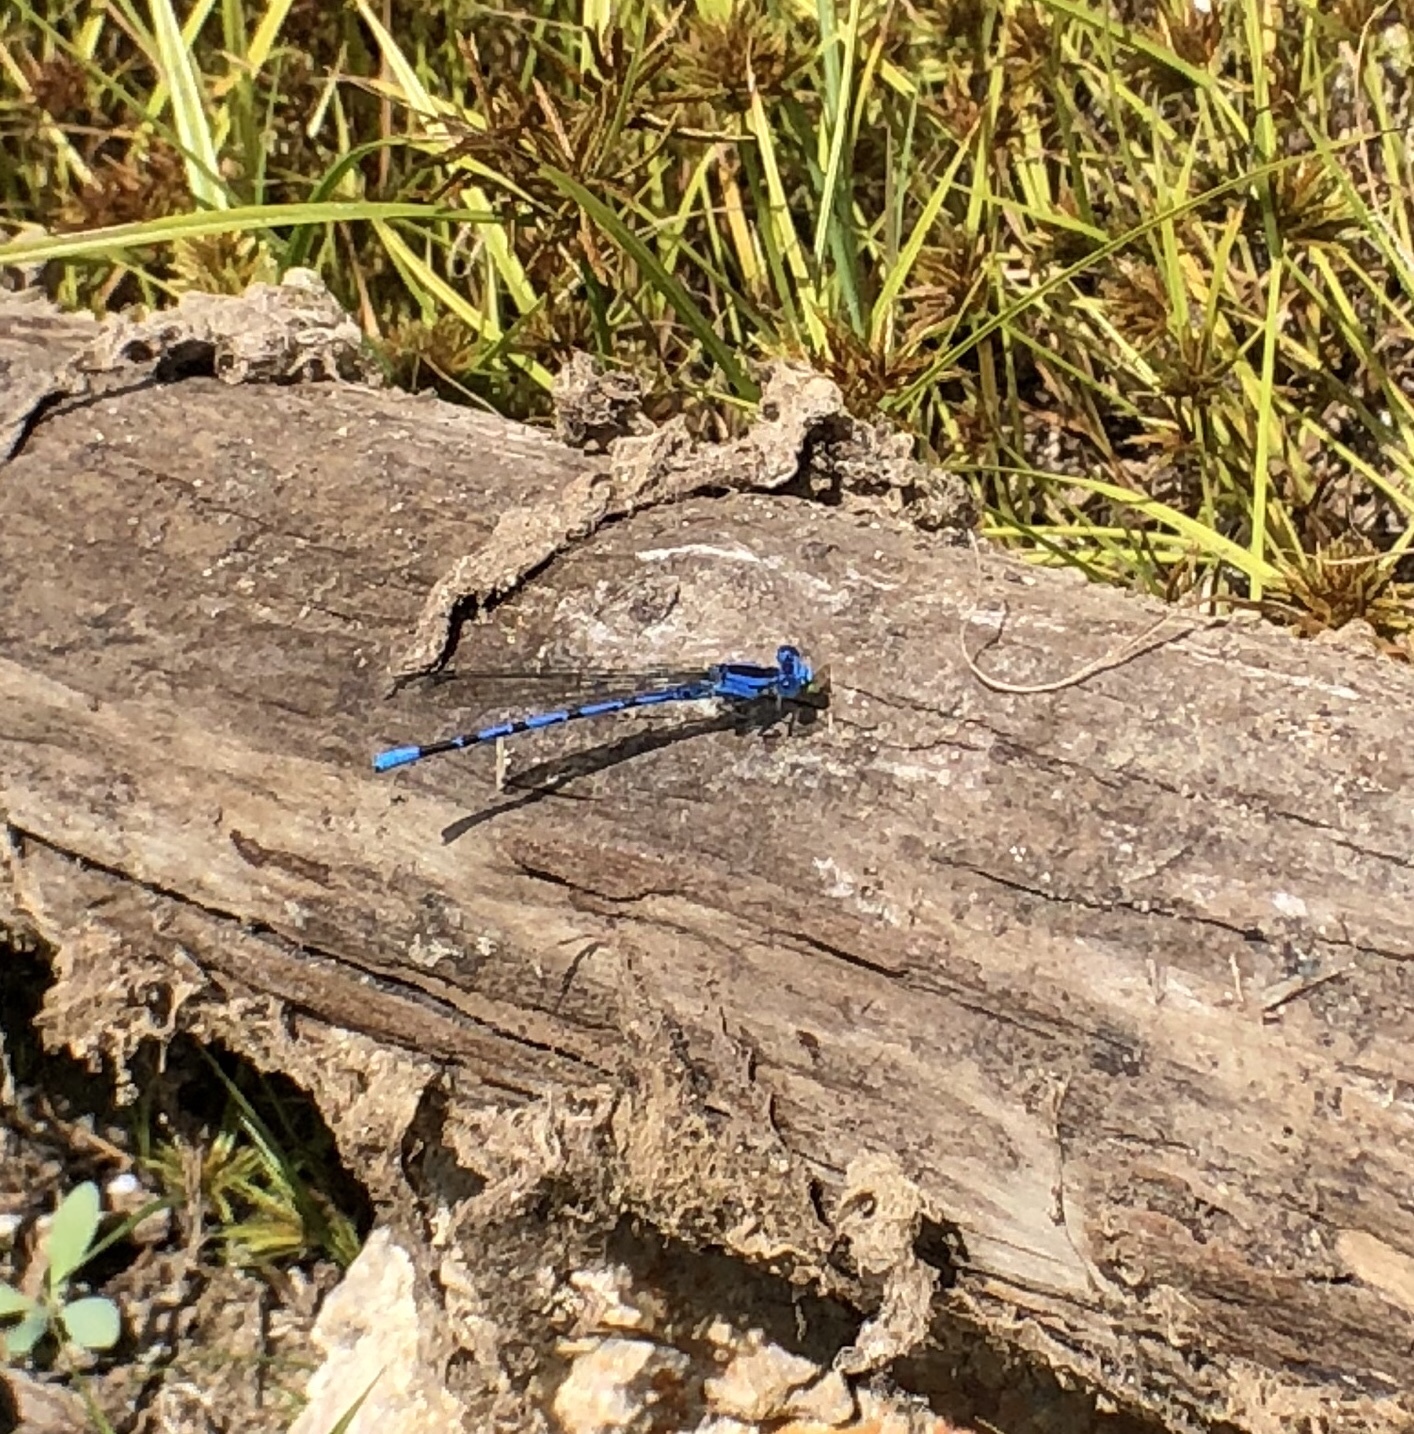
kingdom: Animalia
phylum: Arthropoda
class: Insecta
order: Odonata
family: Coenagrionidae
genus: Argia
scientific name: Argia vivida
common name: Vivid dancer
